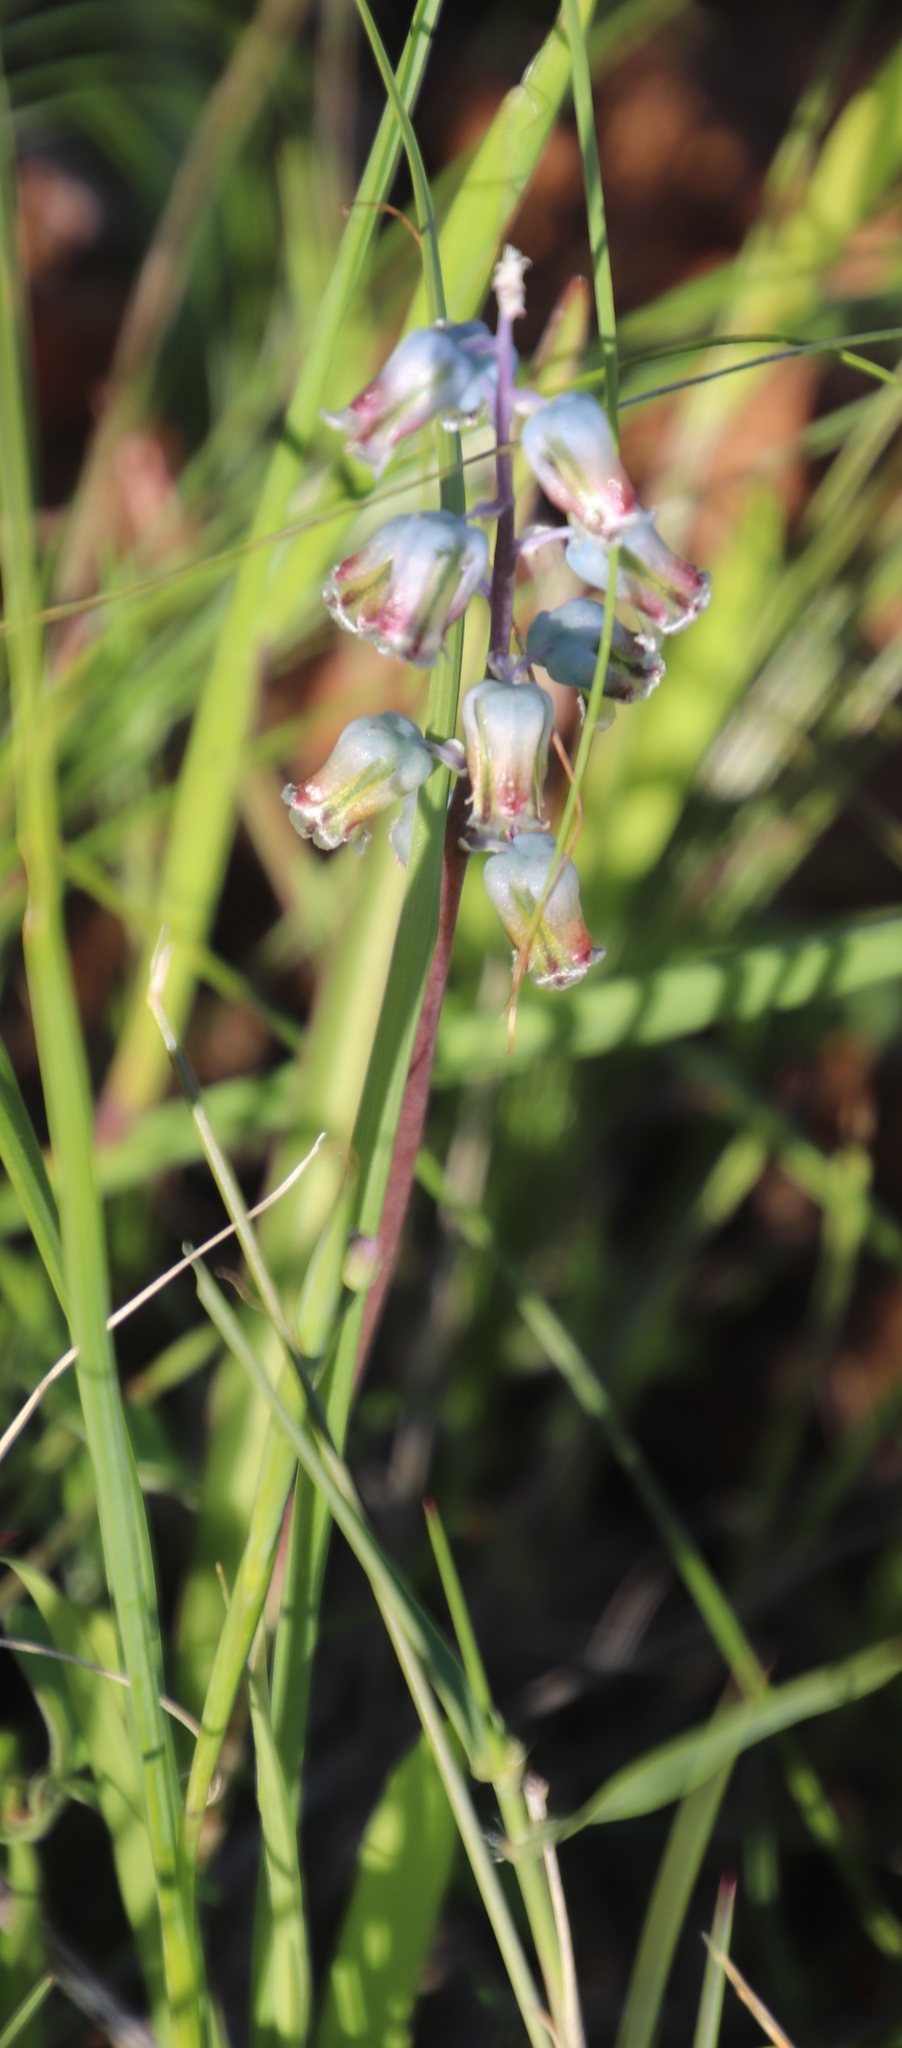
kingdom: Plantae
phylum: Tracheophyta
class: Liliopsida
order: Asparagales
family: Asparagaceae
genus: Lachenalia
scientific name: Lachenalia bolusii
